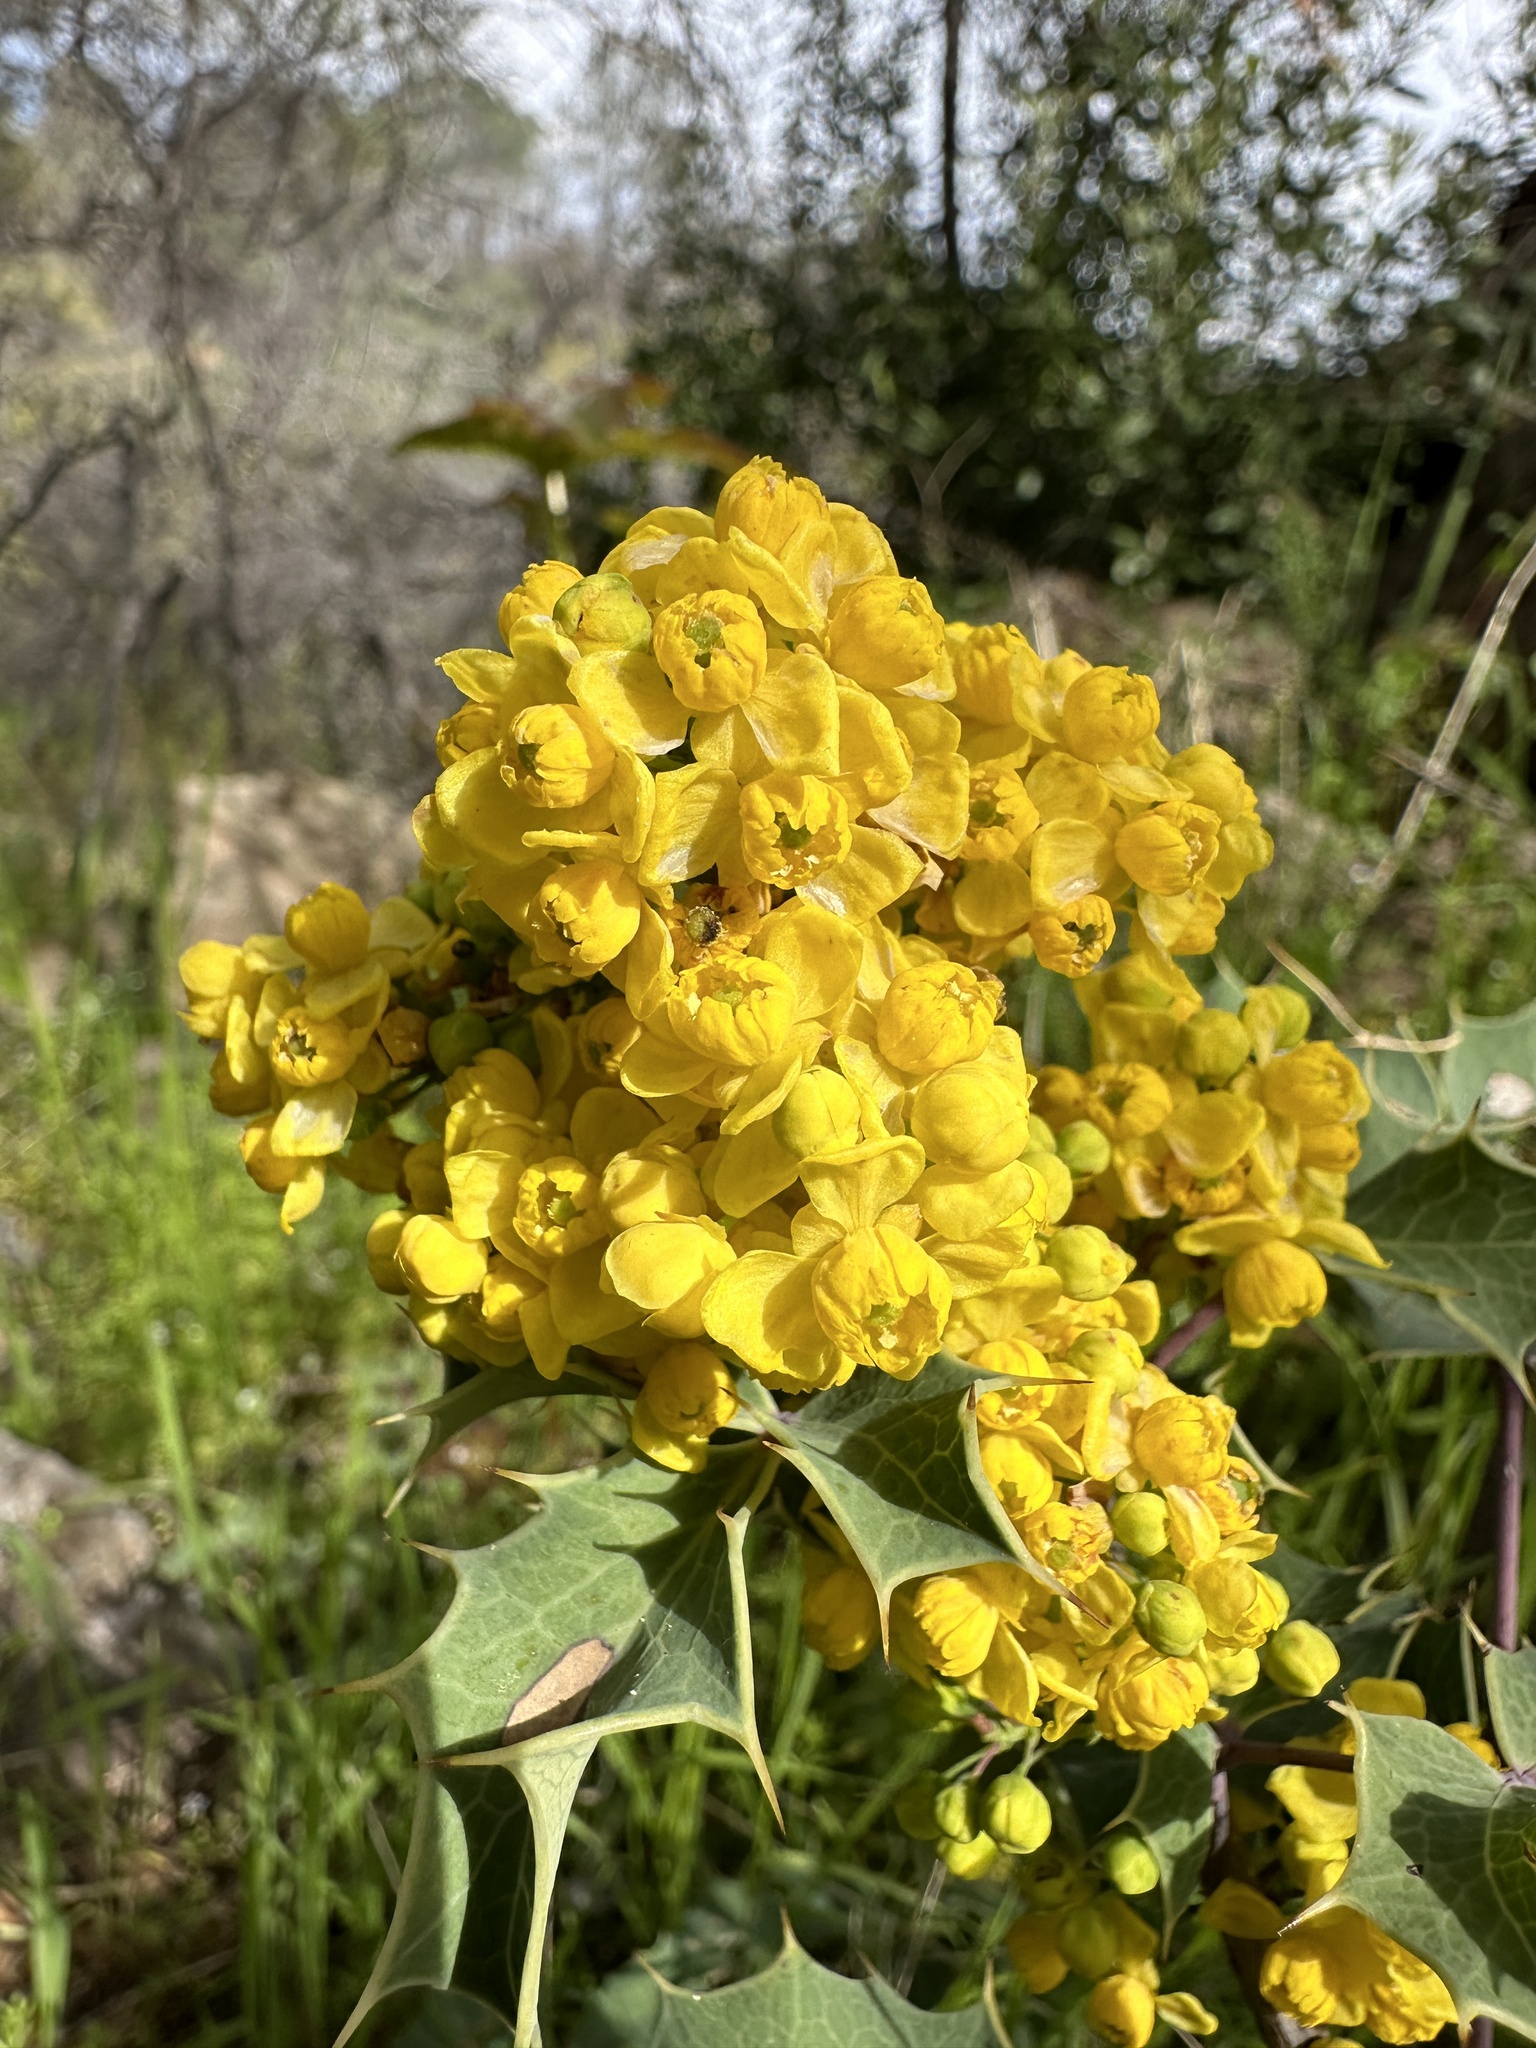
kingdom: Plantae
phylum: Tracheophyta
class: Magnoliopsida
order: Ranunculales
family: Berberidaceae
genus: Mahonia
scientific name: Mahonia dictyota
